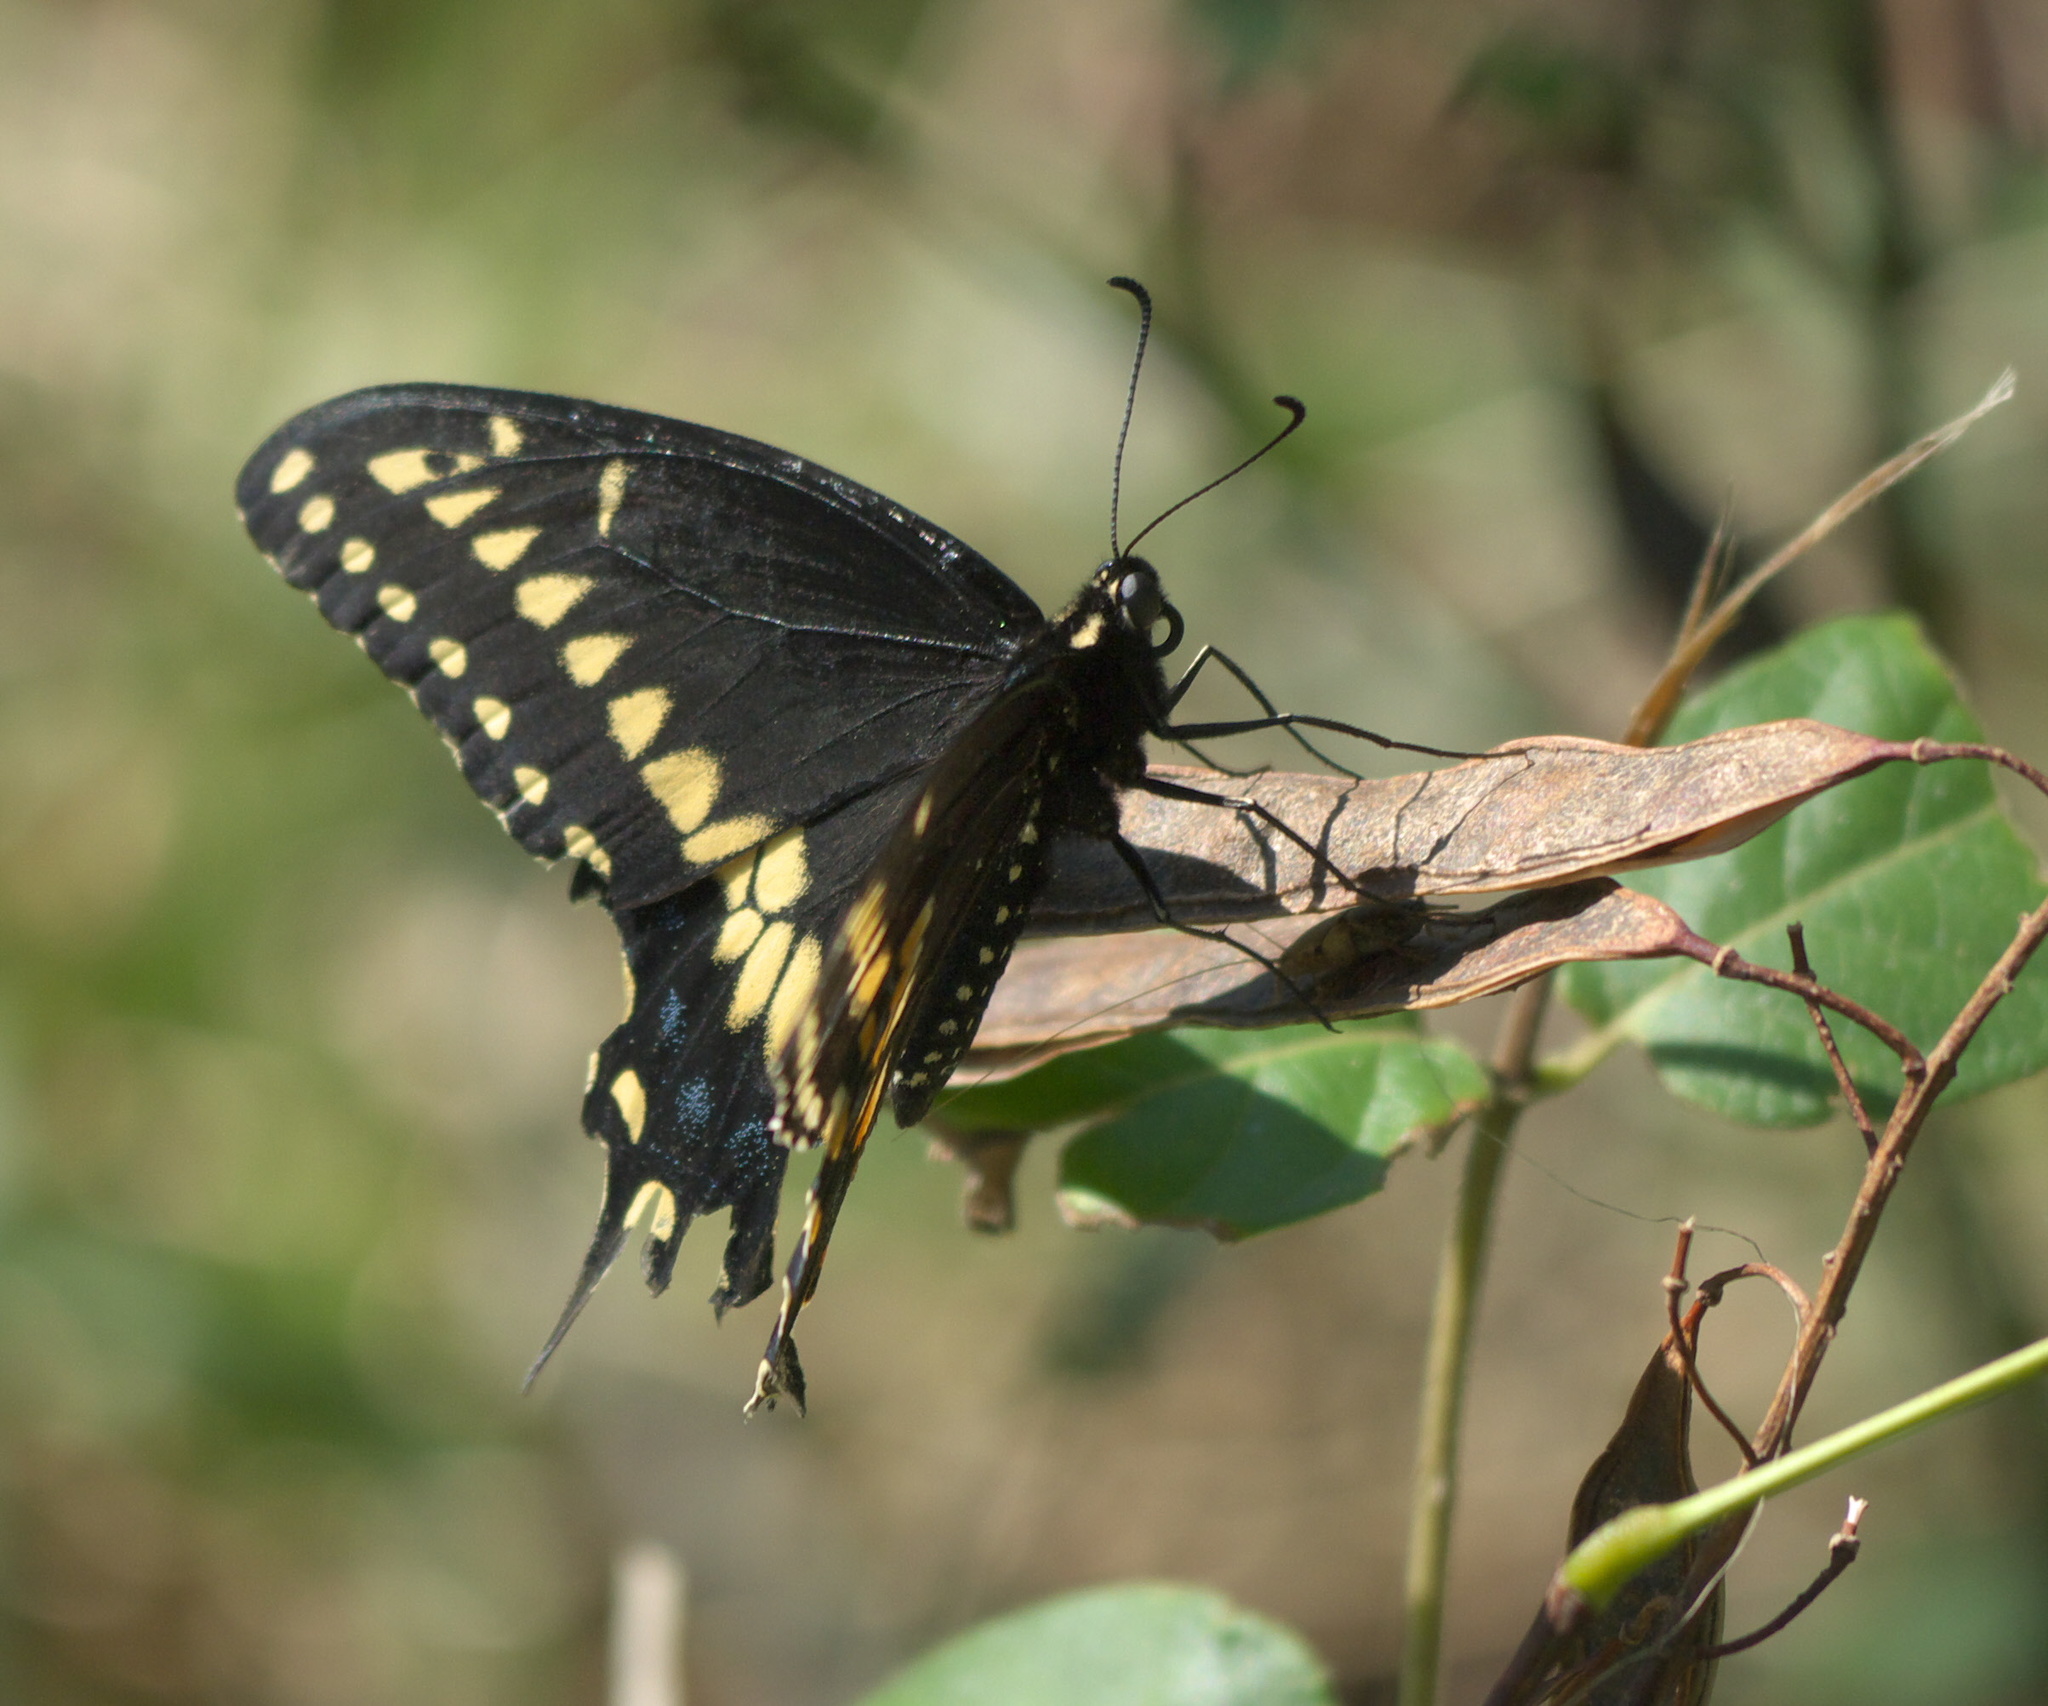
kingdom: Animalia
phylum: Arthropoda
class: Insecta
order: Lepidoptera
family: Papilionidae
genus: Papilio
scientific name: Papilio polyxenes
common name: Black swallowtail
